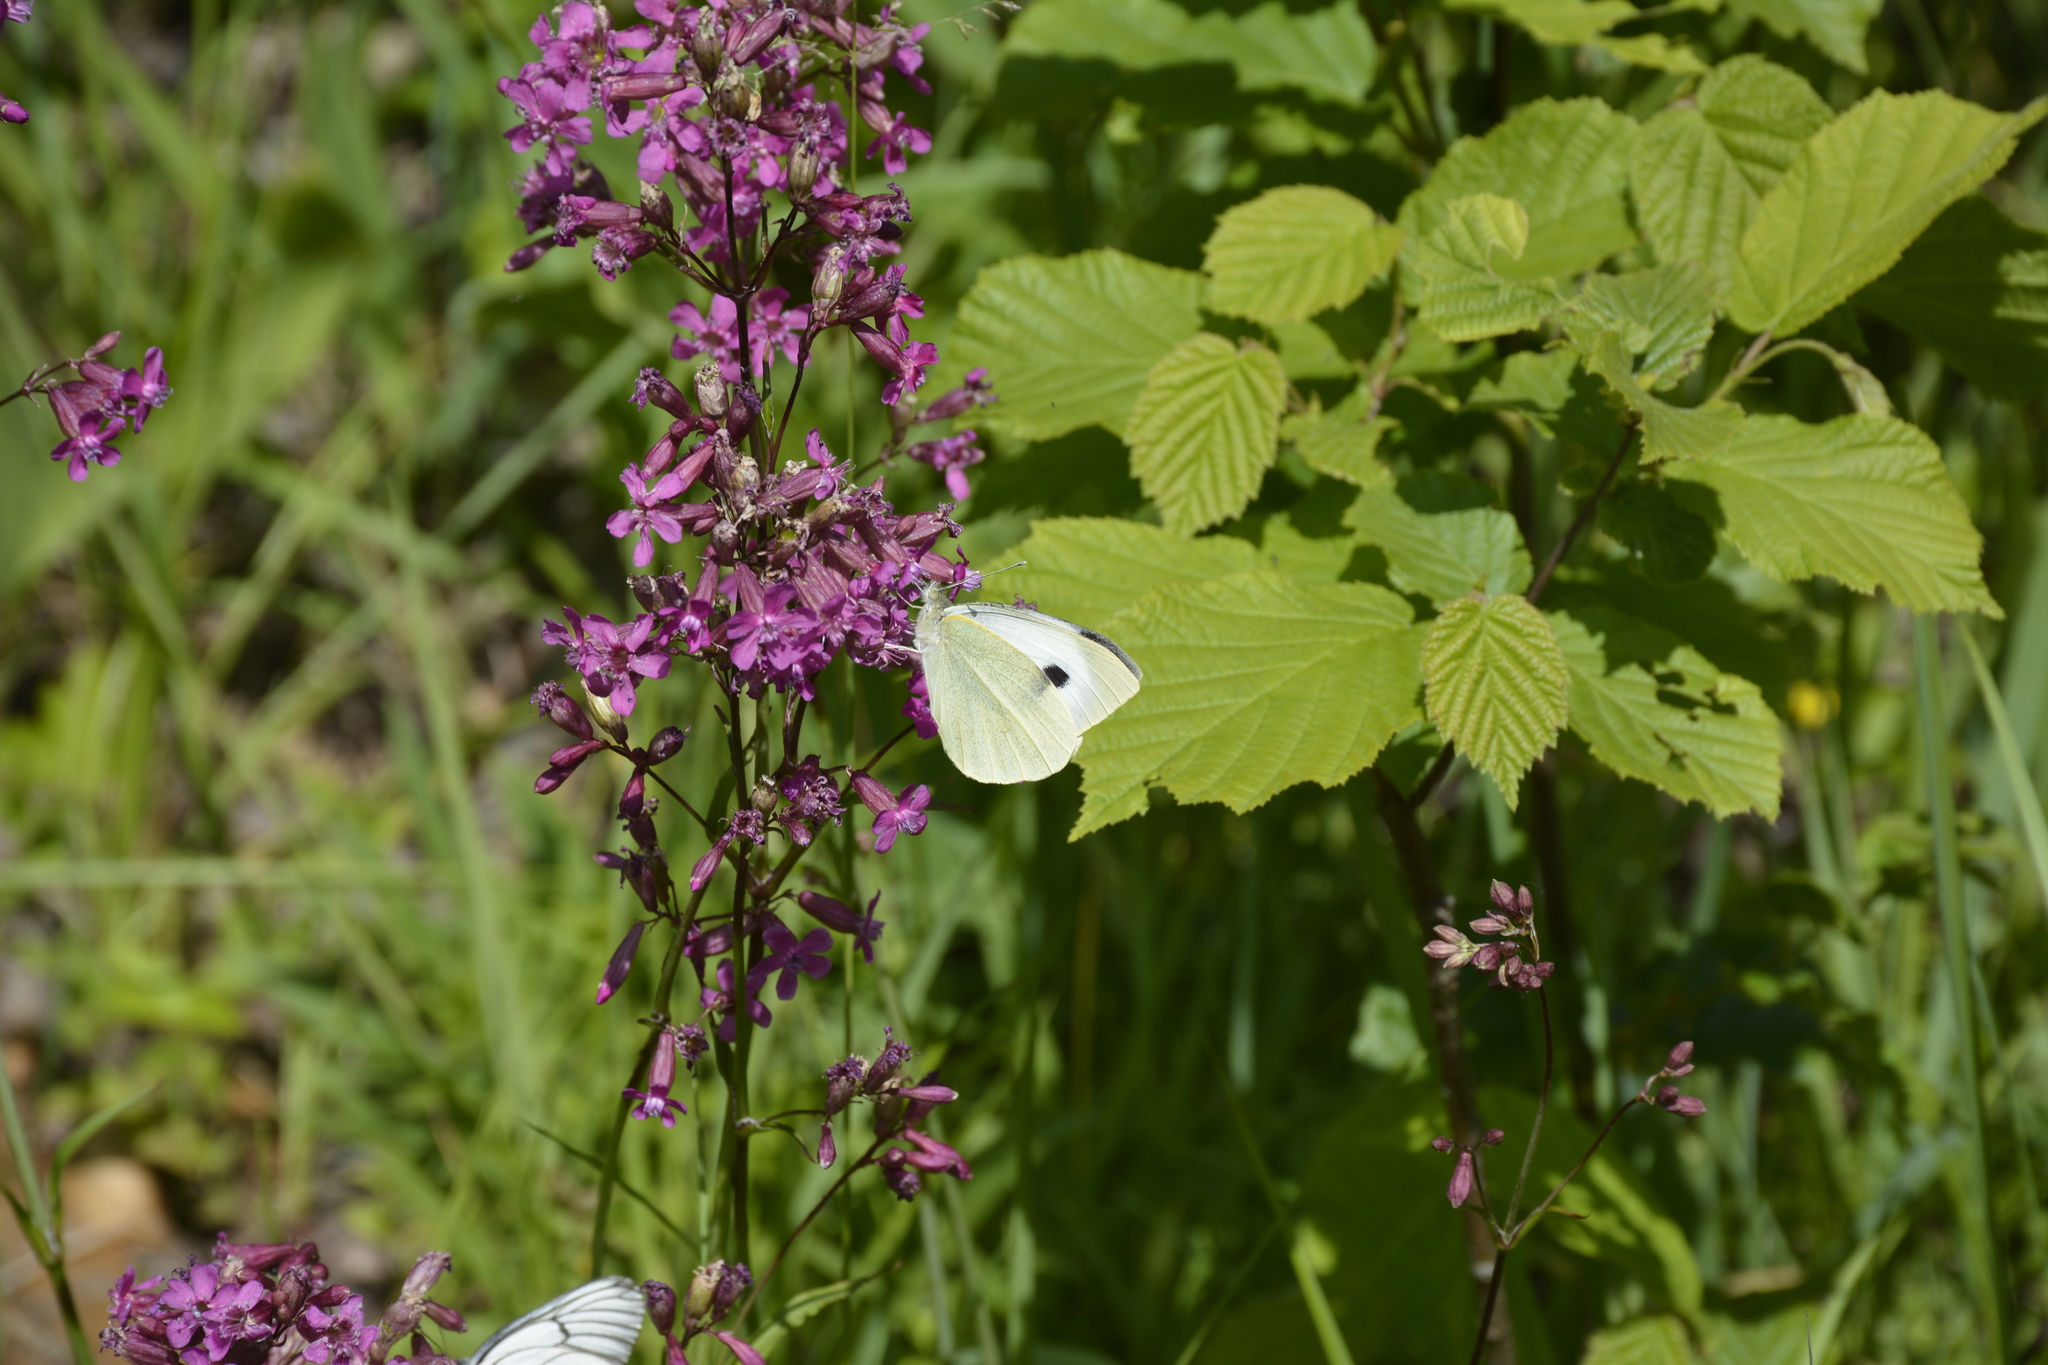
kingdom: Animalia
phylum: Arthropoda
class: Insecta
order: Lepidoptera
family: Pieridae
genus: Pieris
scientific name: Pieris brassicae
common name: Large white
